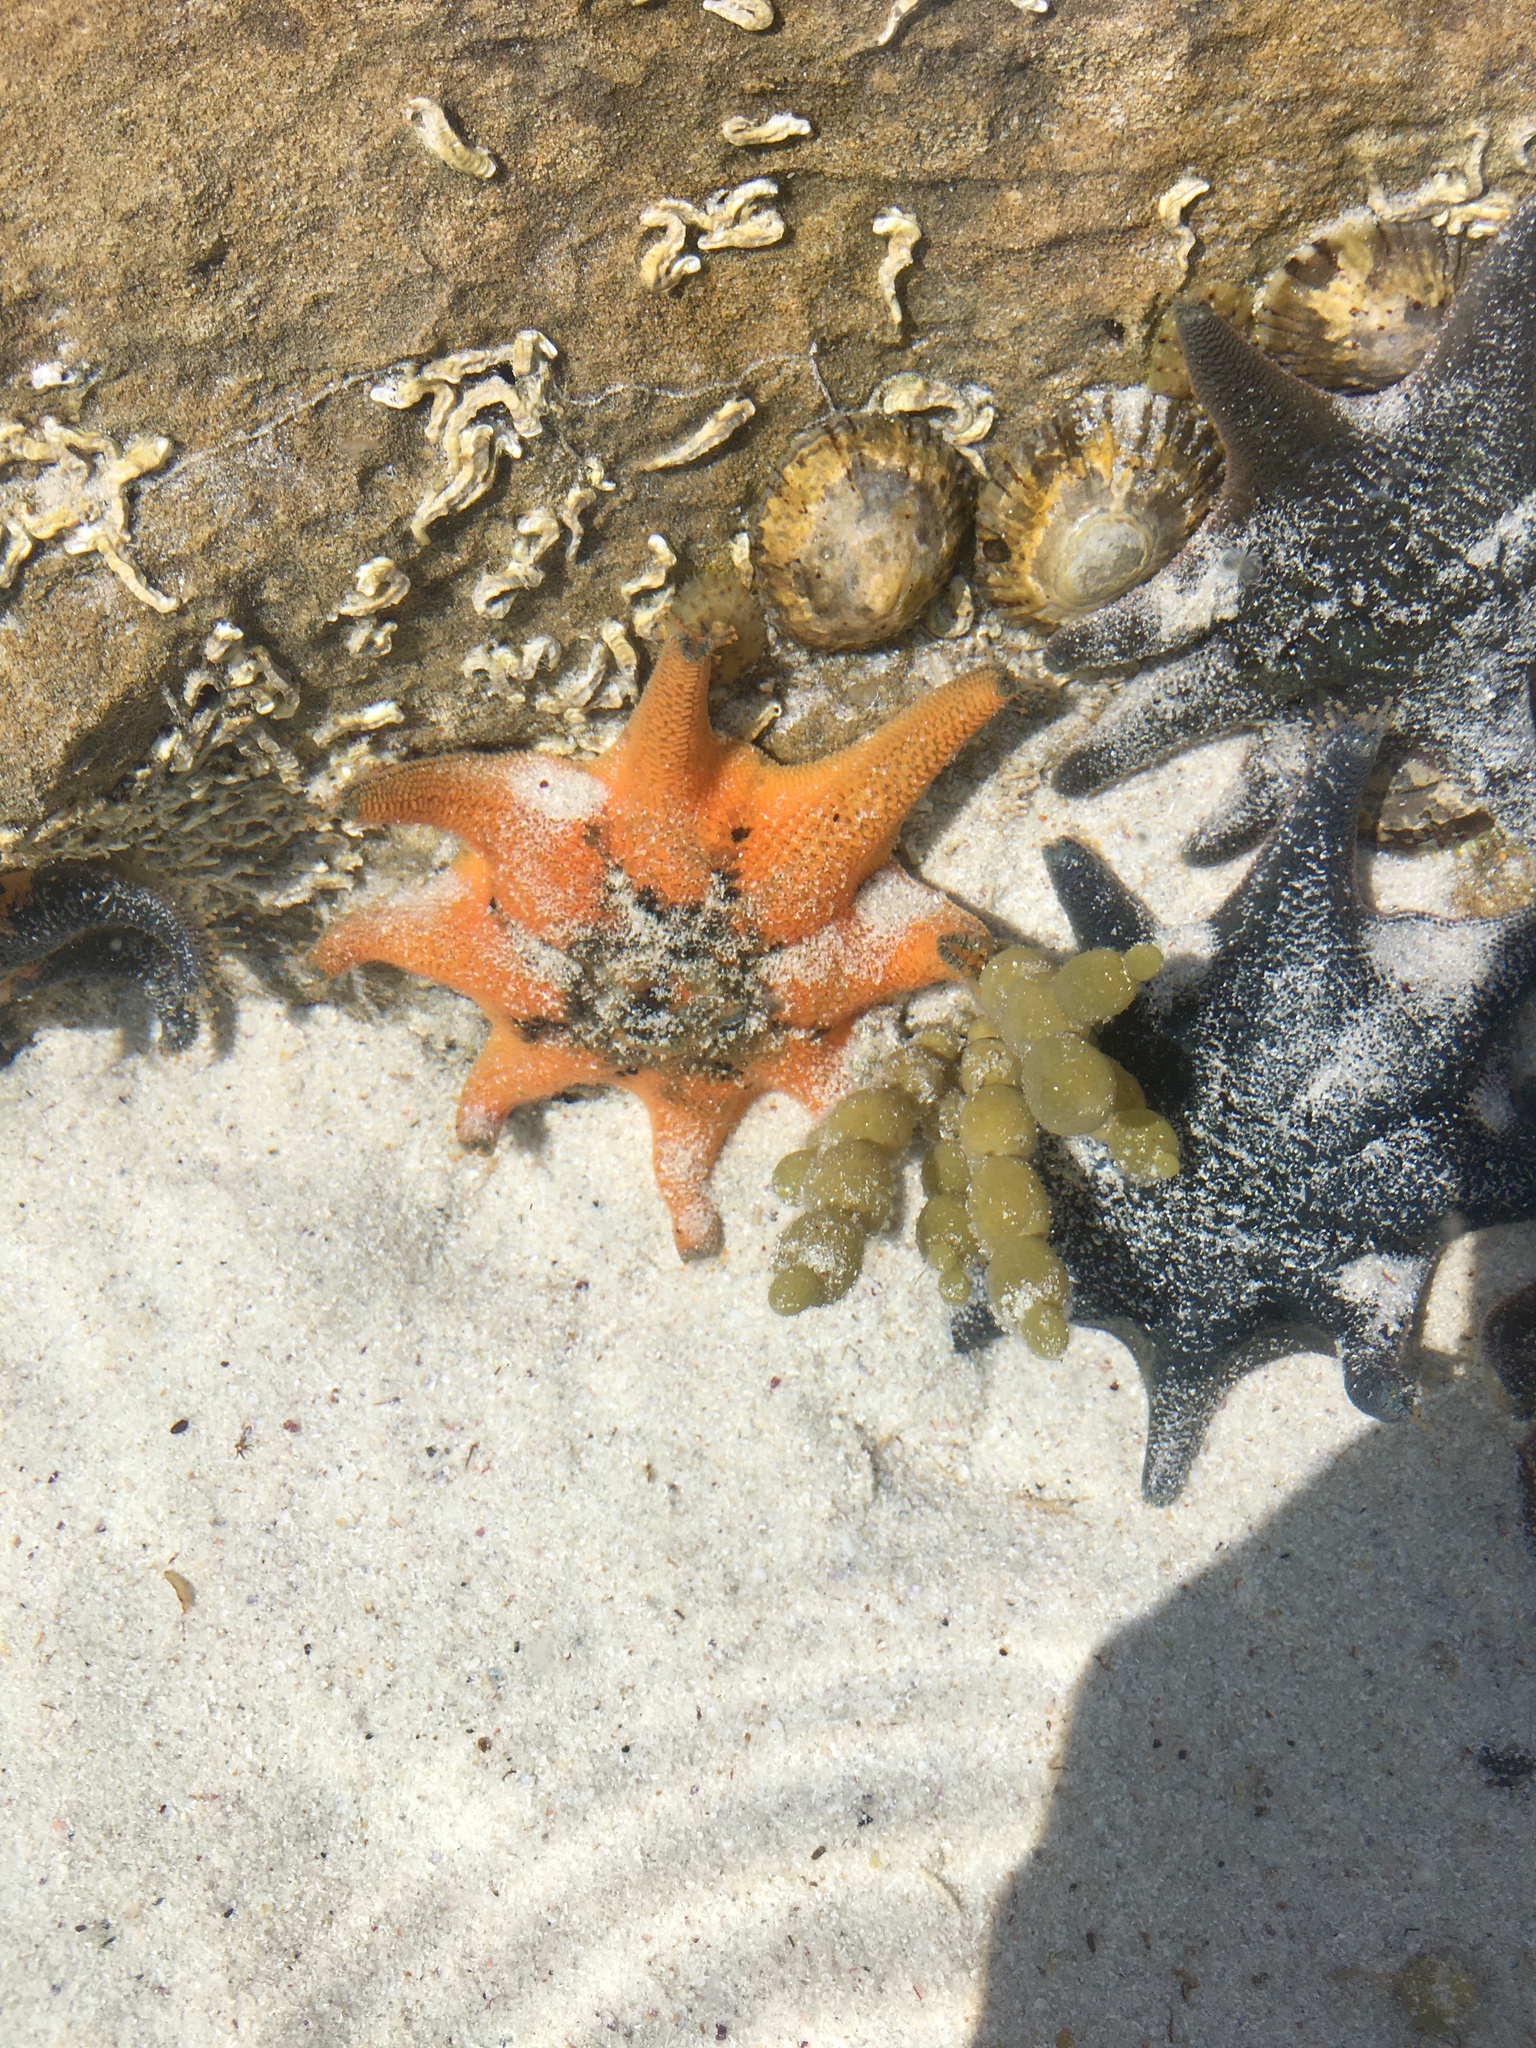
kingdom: Animalia
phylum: Echinodermata
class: Asteroidea
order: Valvatida
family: Asterinidae
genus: Meridiastra
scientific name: Meridiastra calcar
